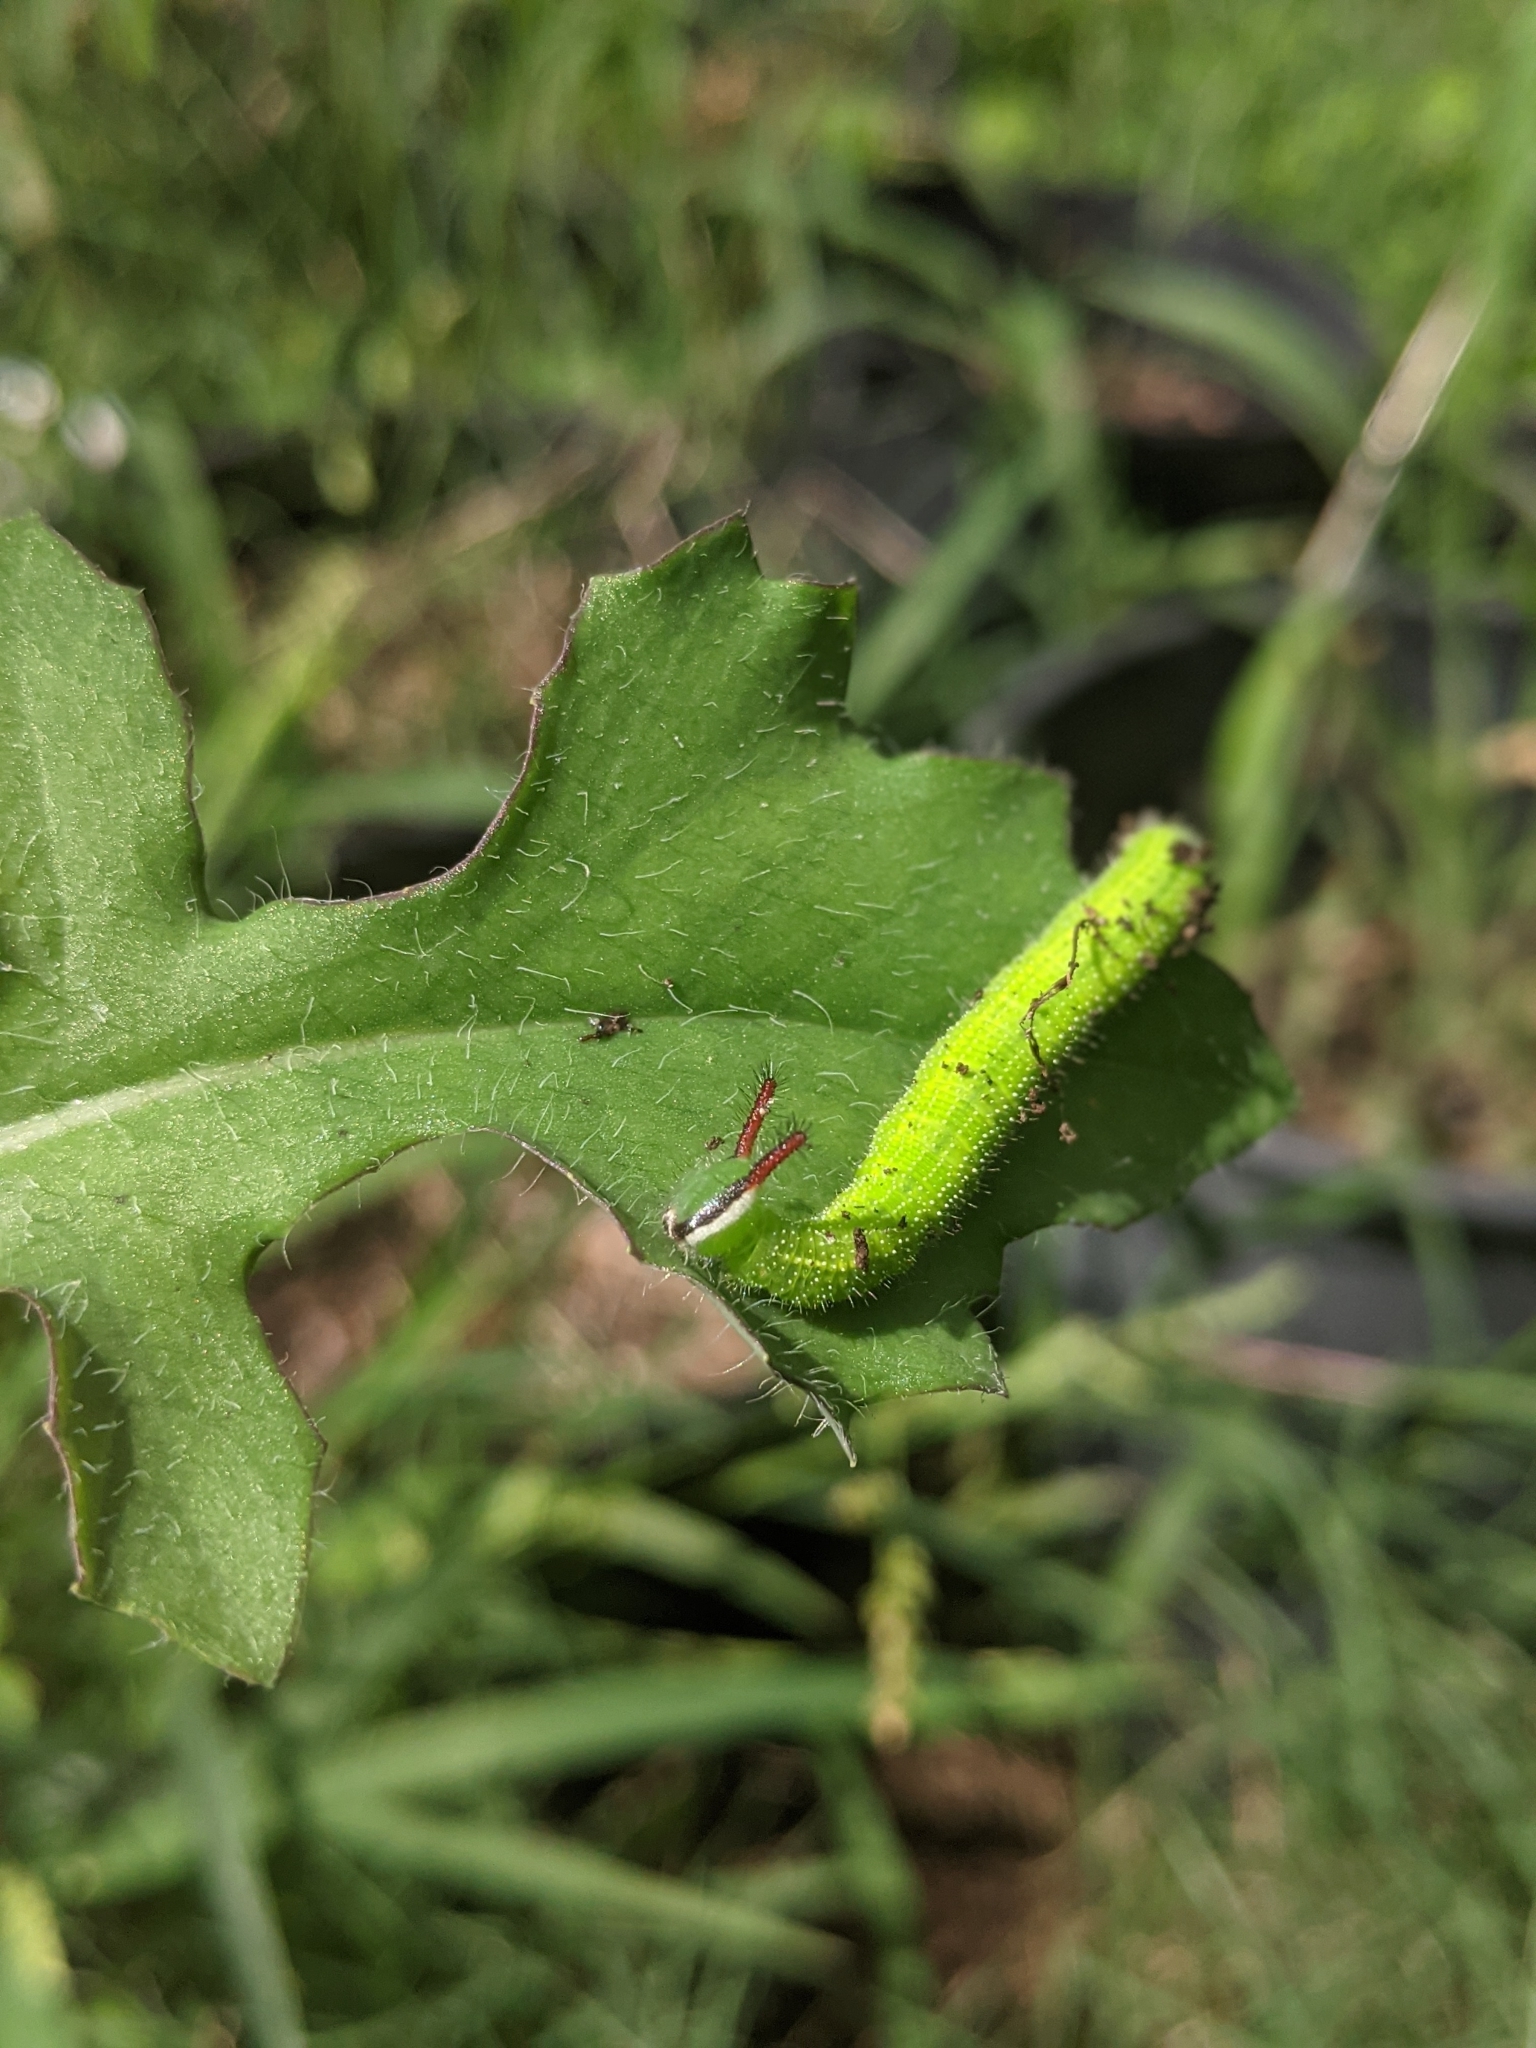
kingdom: Animalia
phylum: Arthropoda
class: Insecta
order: Lepidoptera
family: Nymphalidae
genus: Melanitis
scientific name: Melanitis leda
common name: Twilight brown
